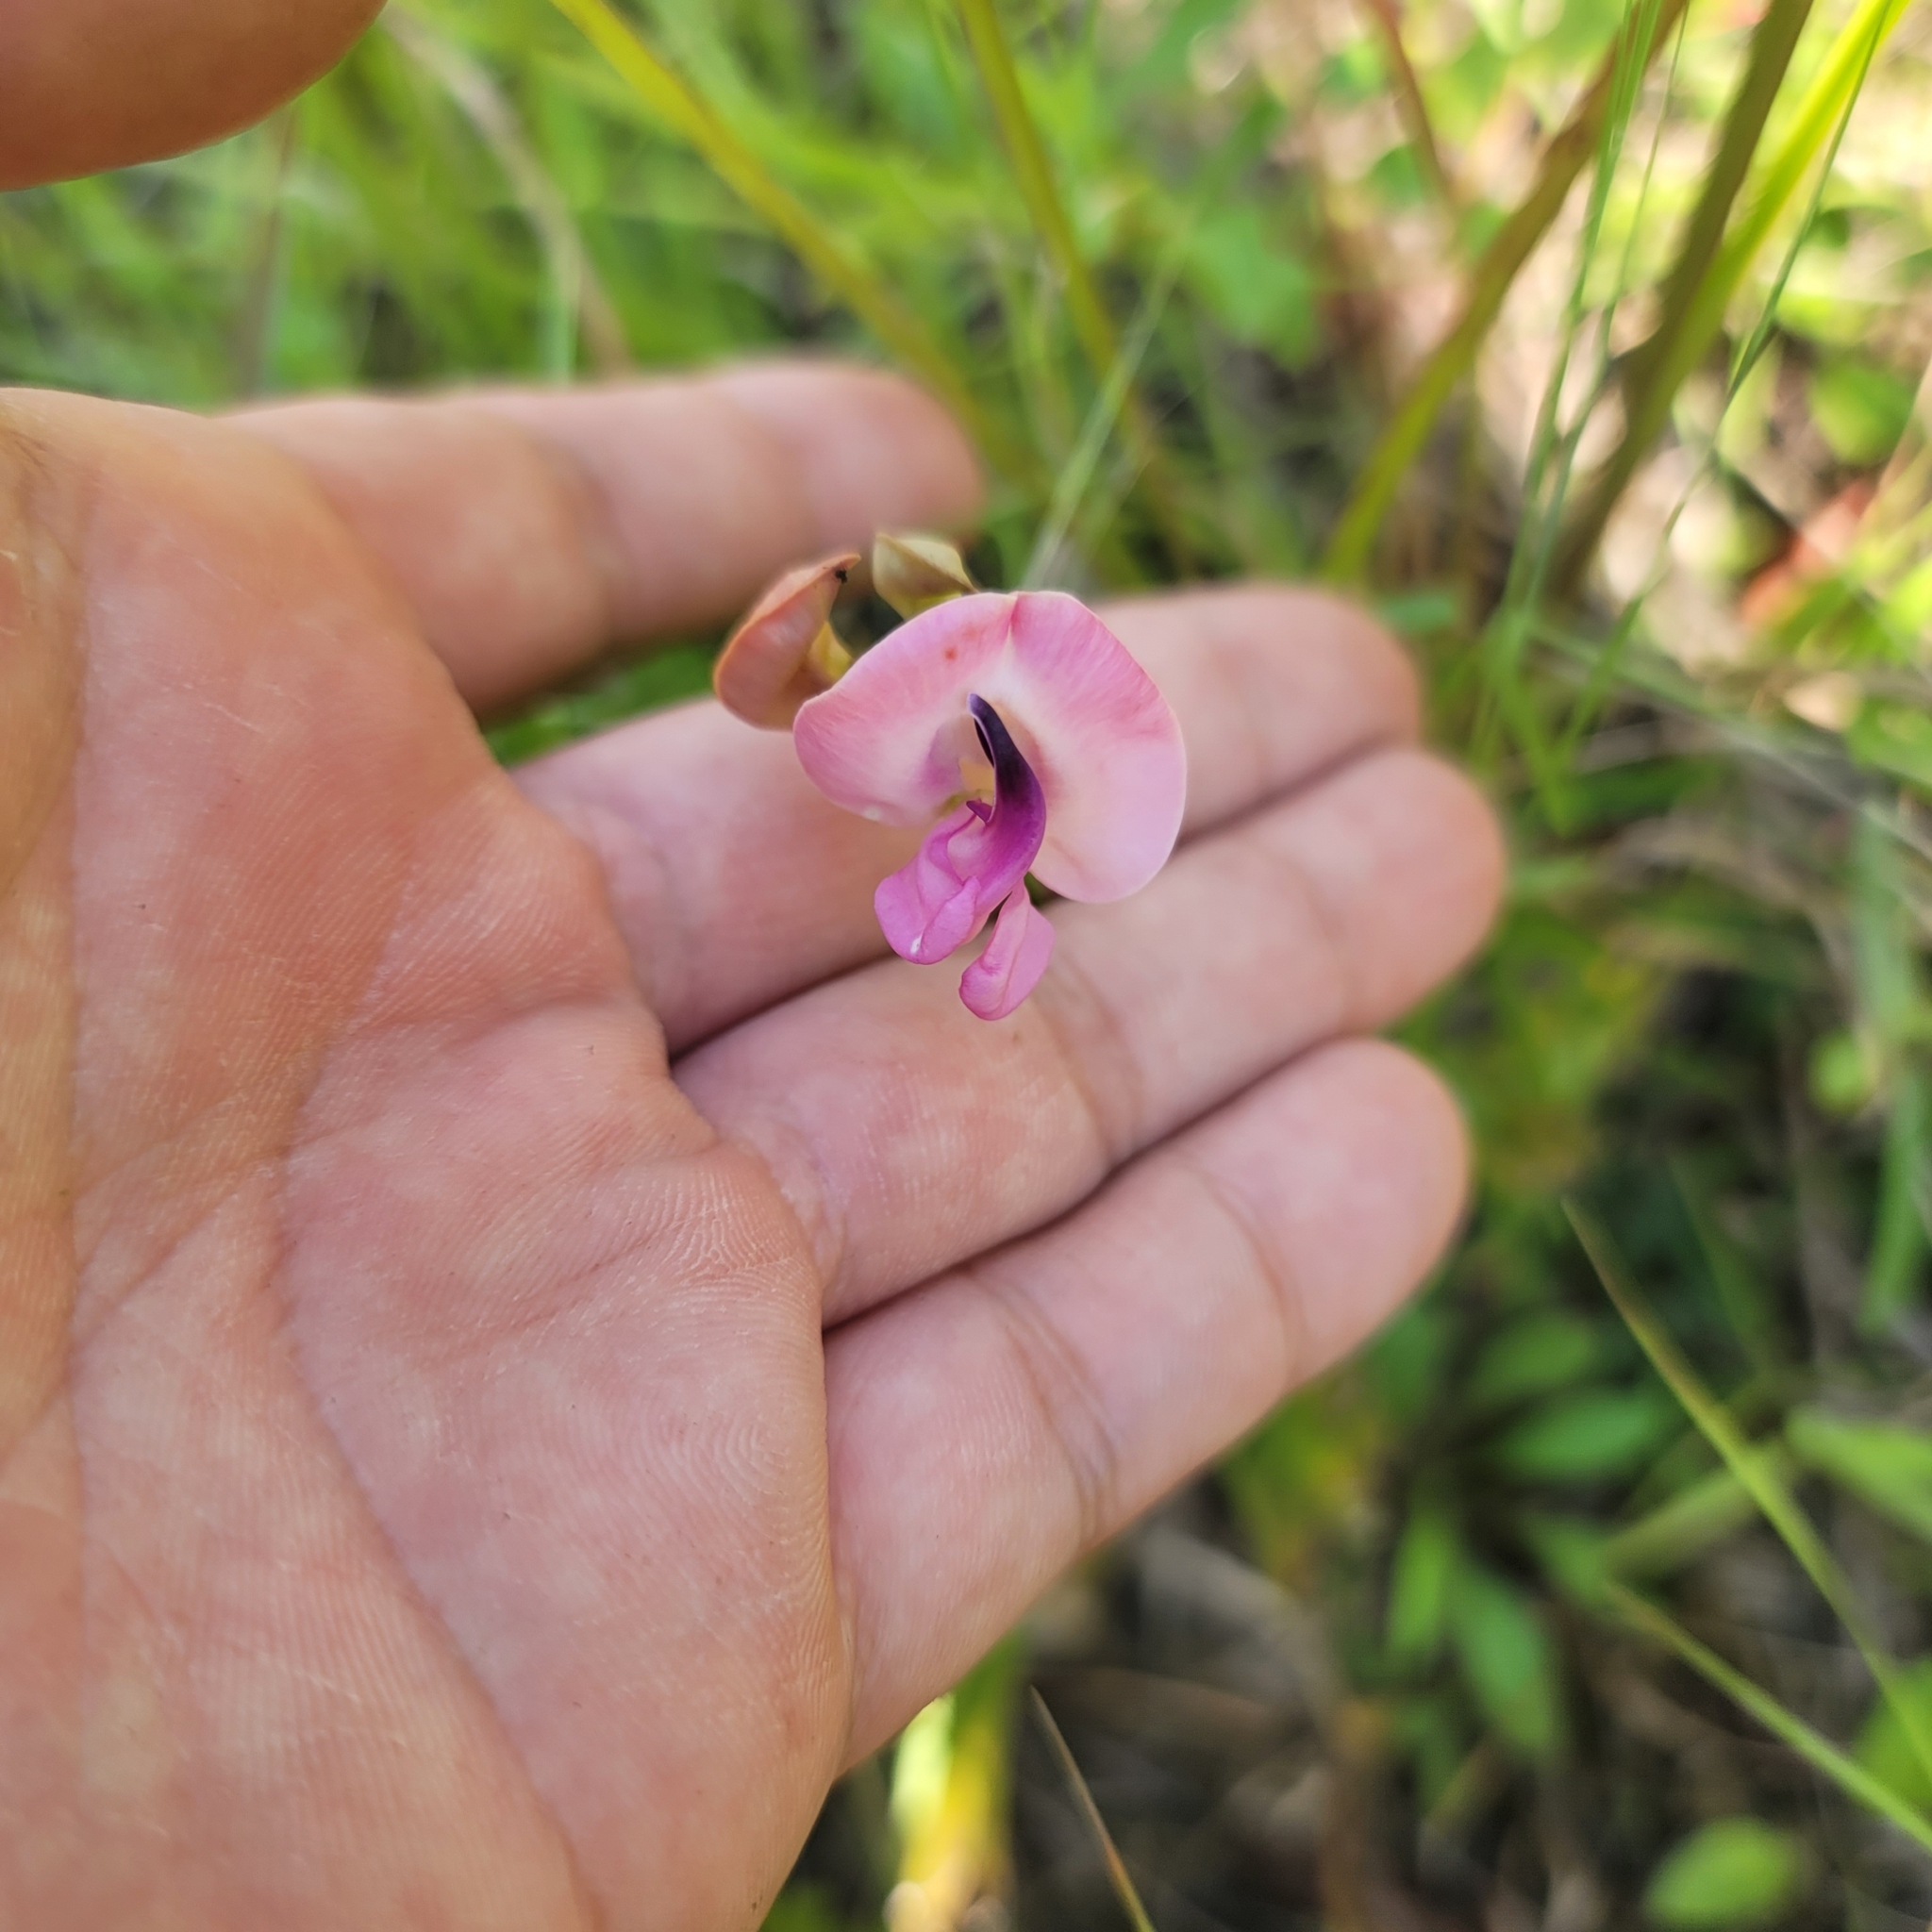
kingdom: Plantae
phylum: Tracheophyta
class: Magnoliopsida
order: Fabales
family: Fabaceae
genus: Strophostyles
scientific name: Strophostyles umbellata
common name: Perennial wild bean
